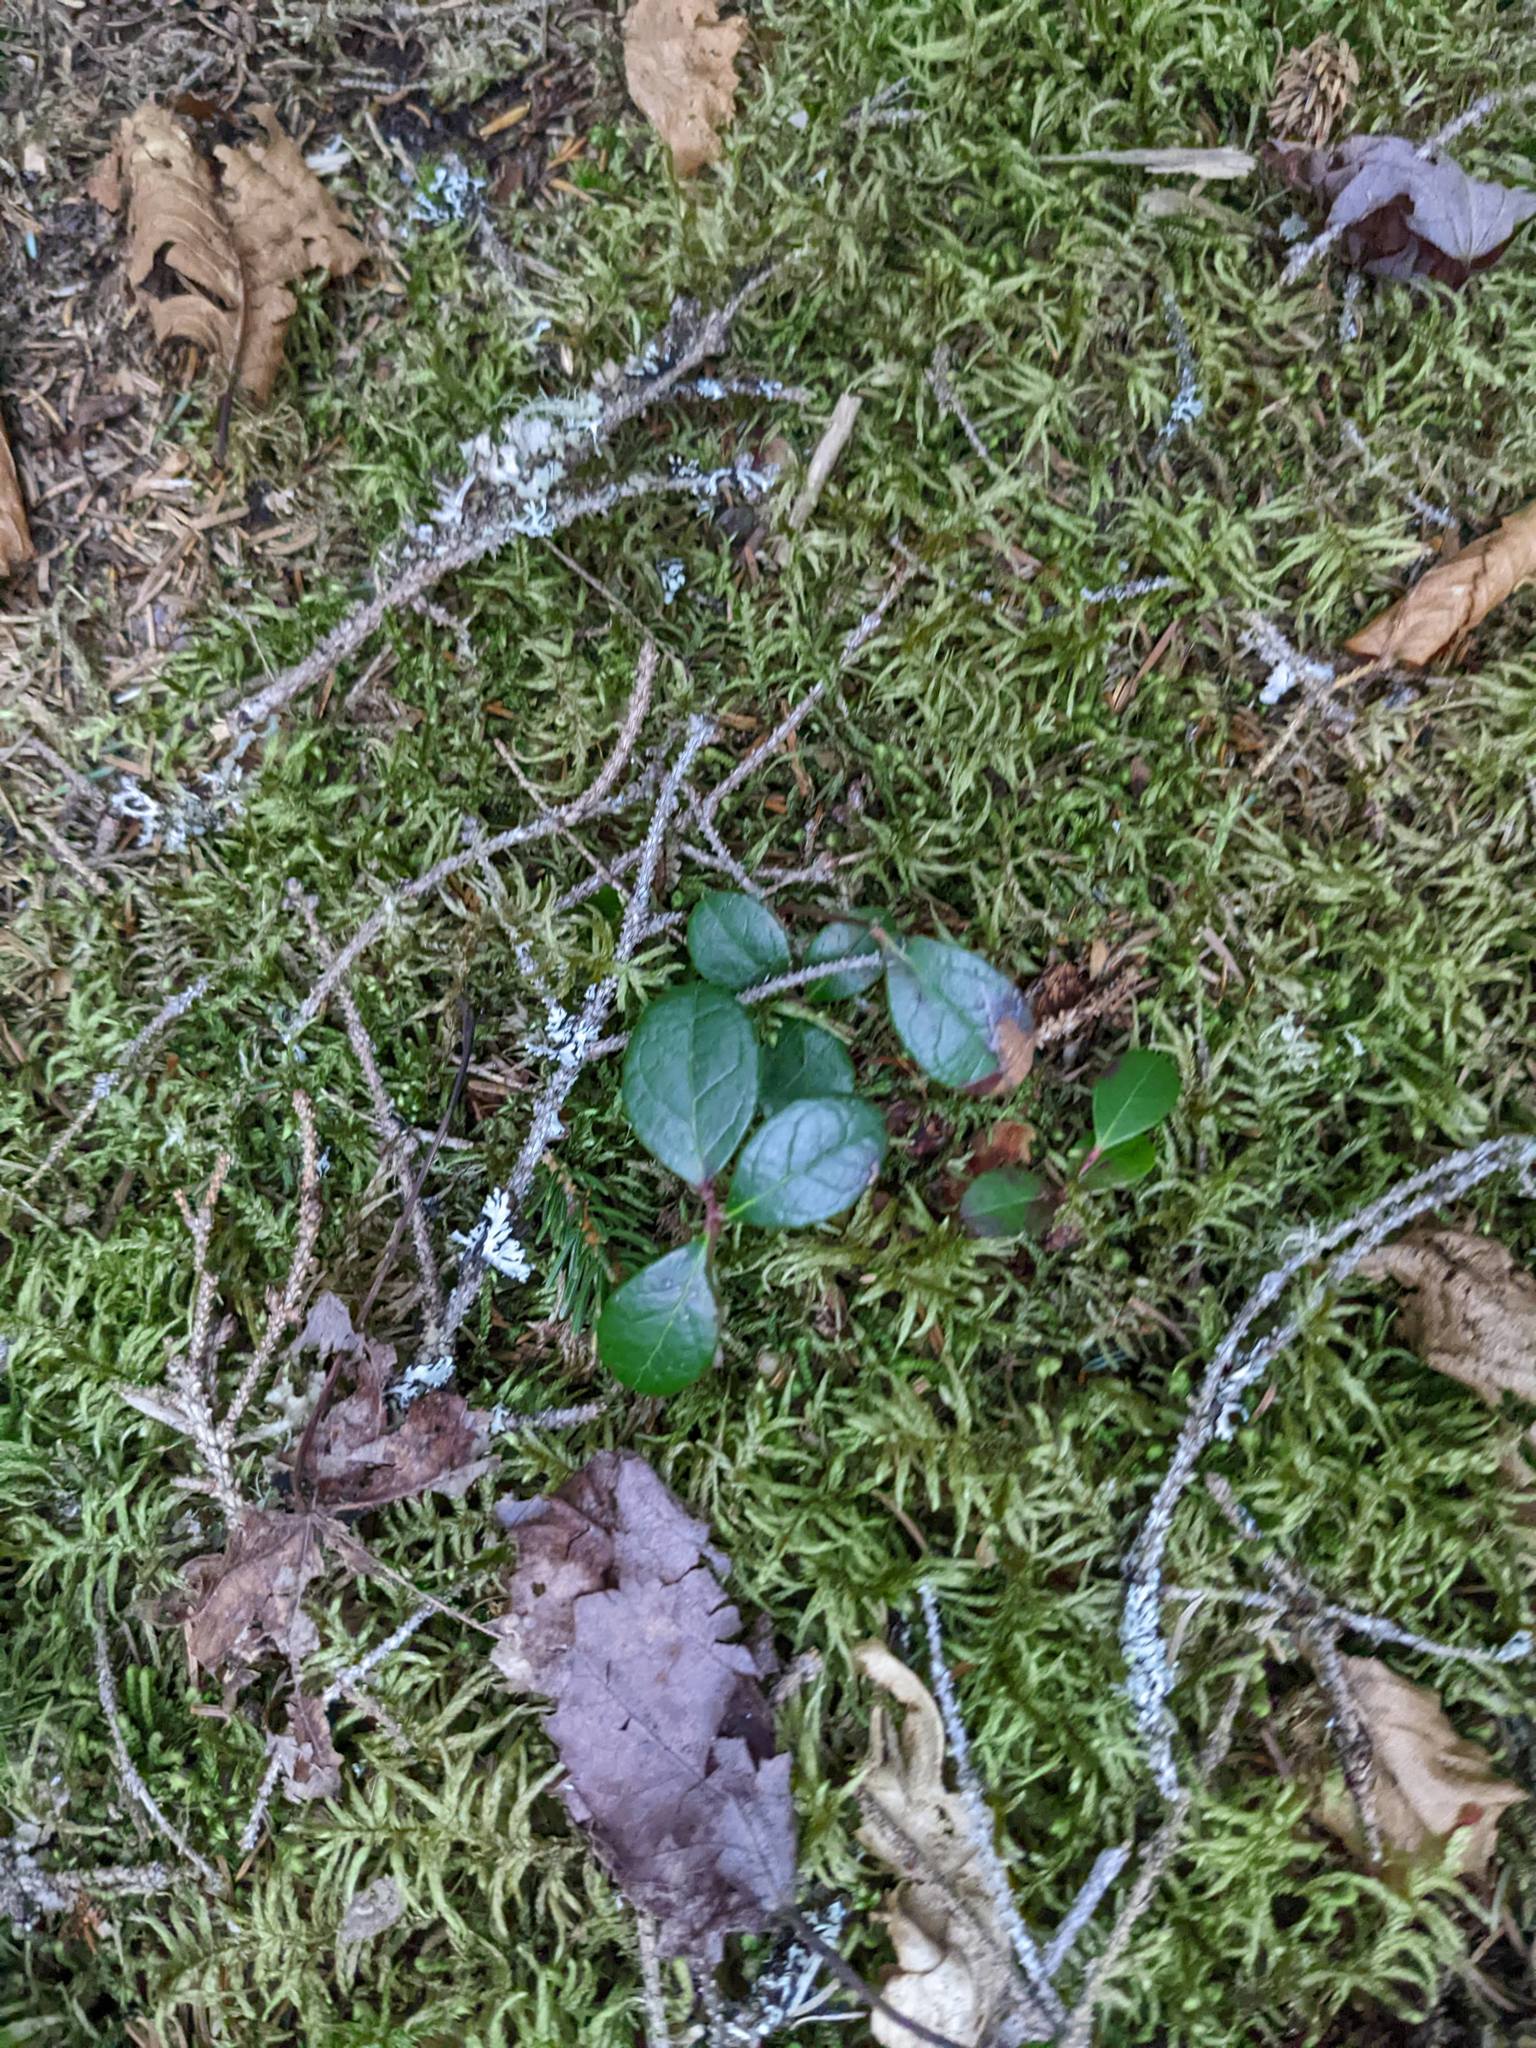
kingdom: Plantae
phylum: Tracheophyta
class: Magnoliopsida
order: Ericales
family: Ericaceae
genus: Gaultheria
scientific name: Gaultheria procumbens
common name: Checkerberry
